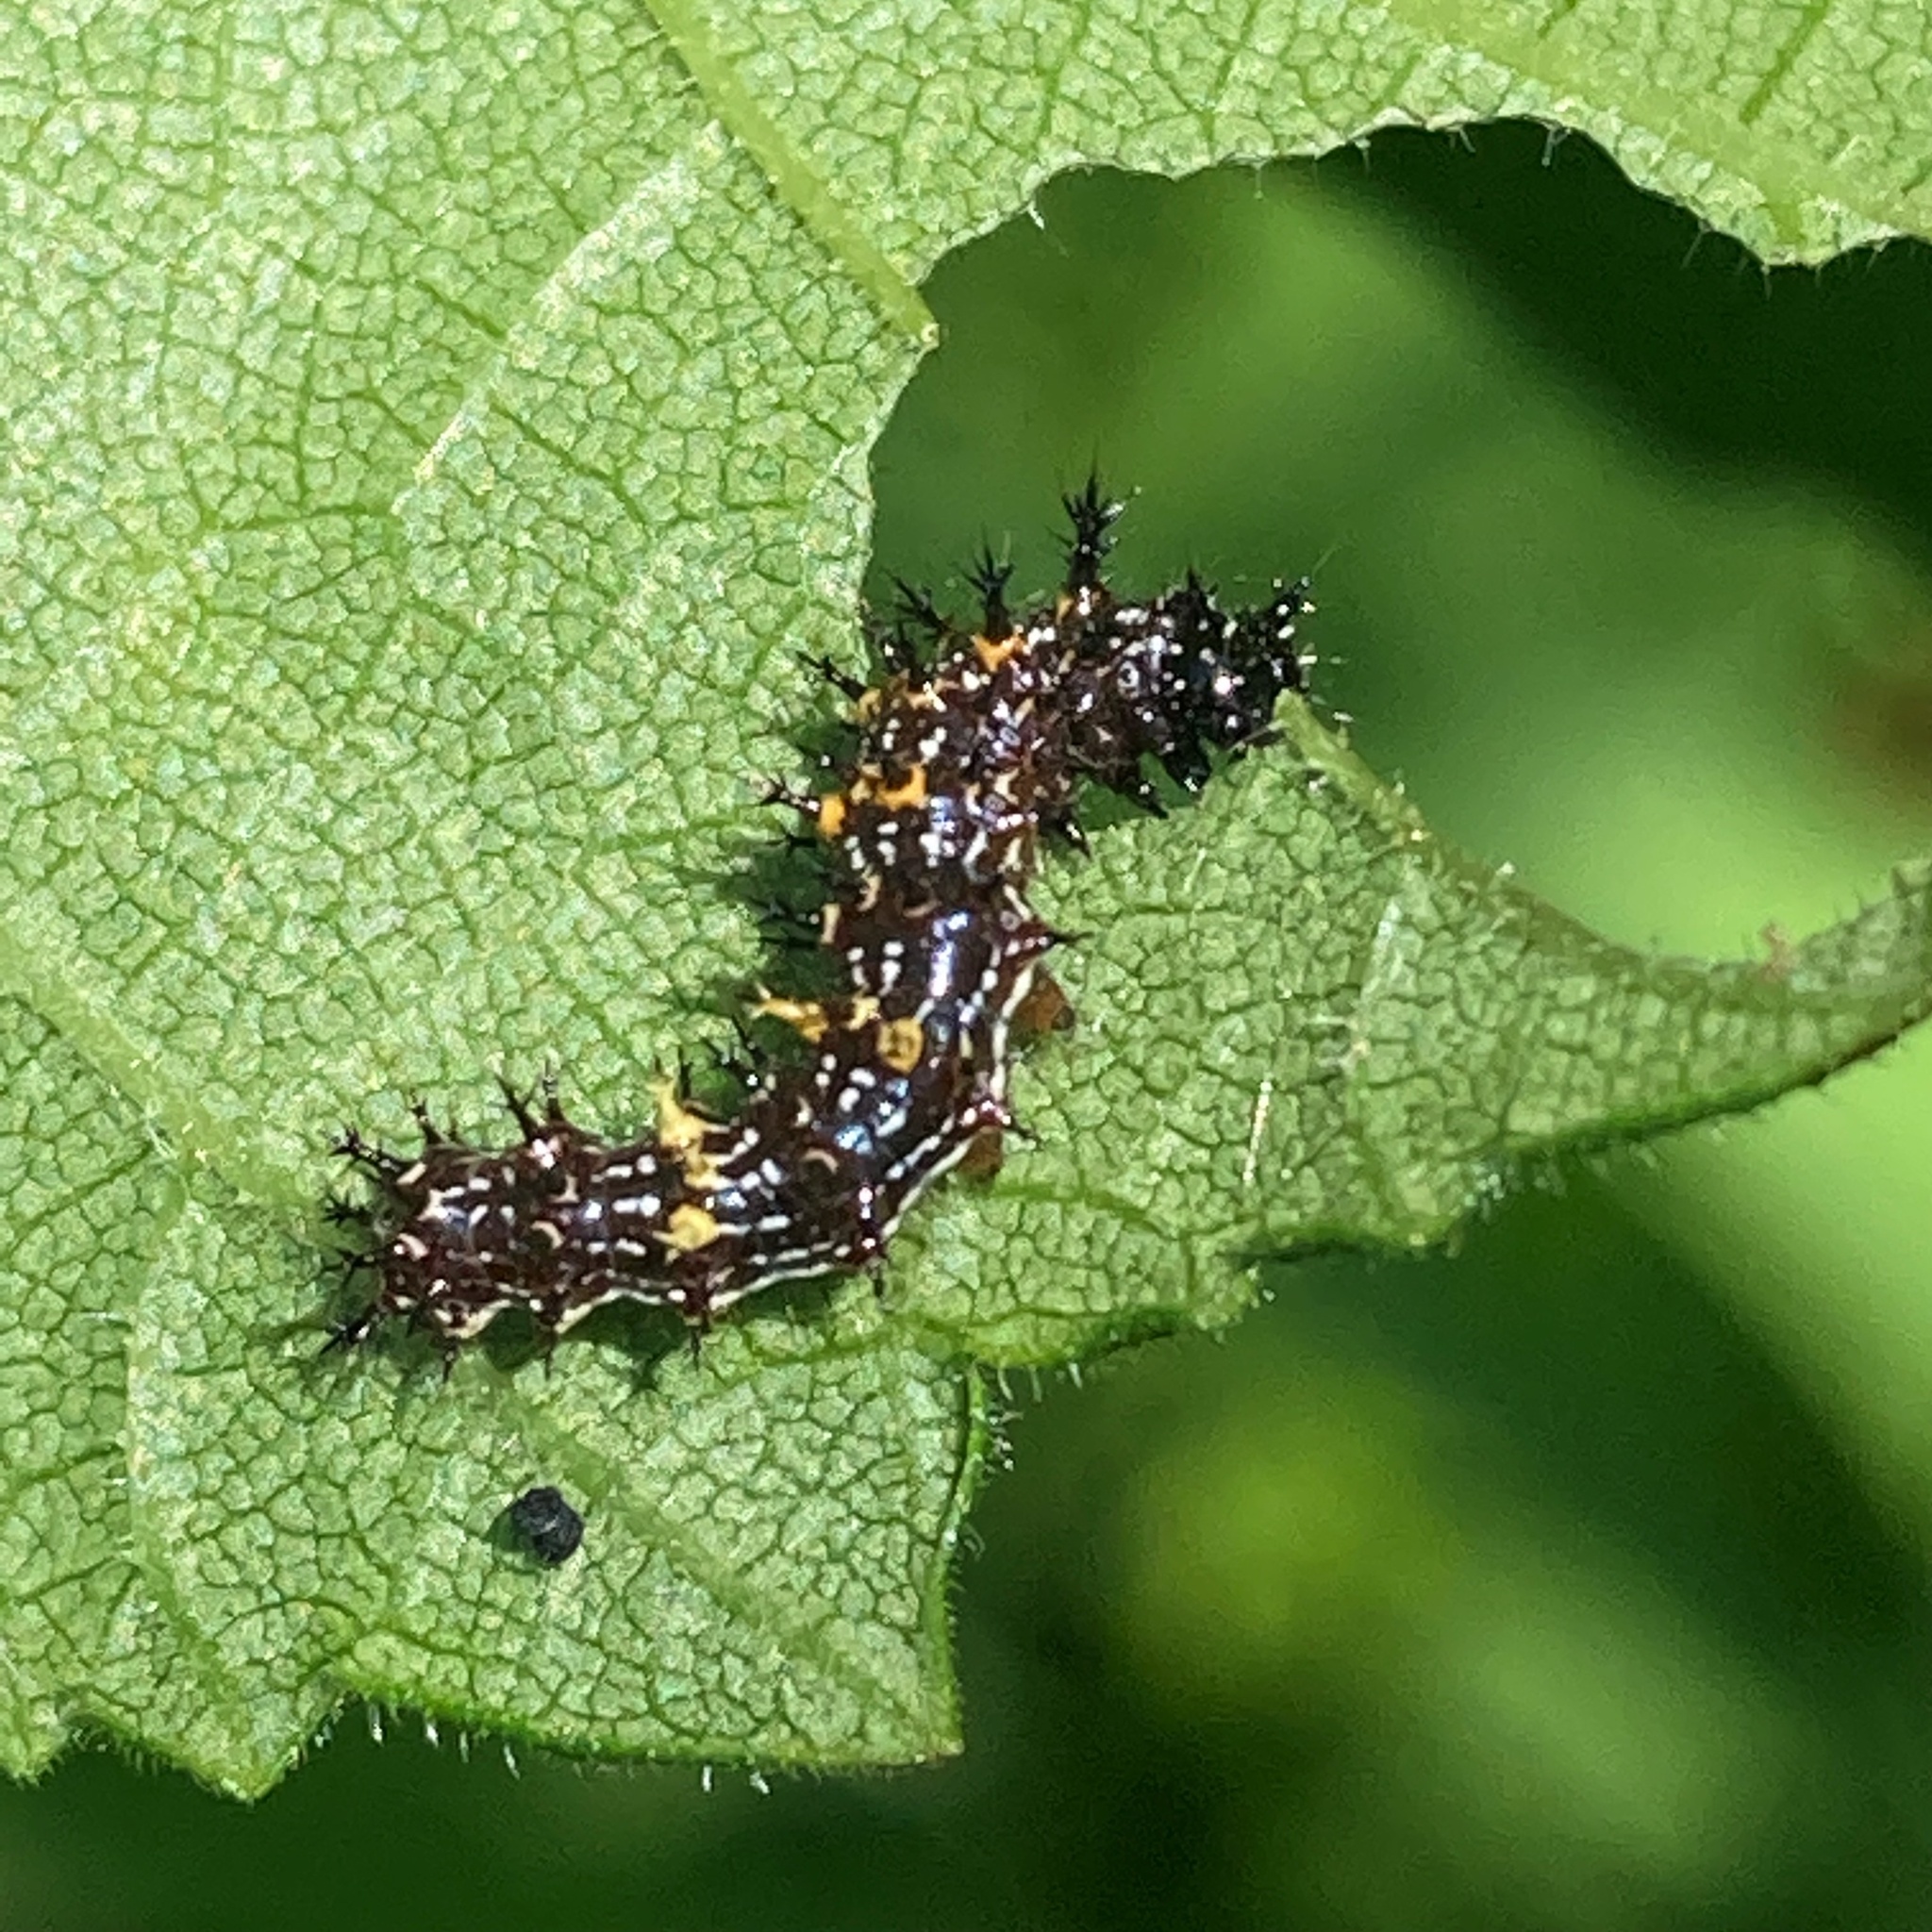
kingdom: Animalia
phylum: Arthropoda
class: Insecta
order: Lepidoptera
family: Nymphalidae
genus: Polygonia
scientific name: Polygonia interrogationis
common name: Question mark
